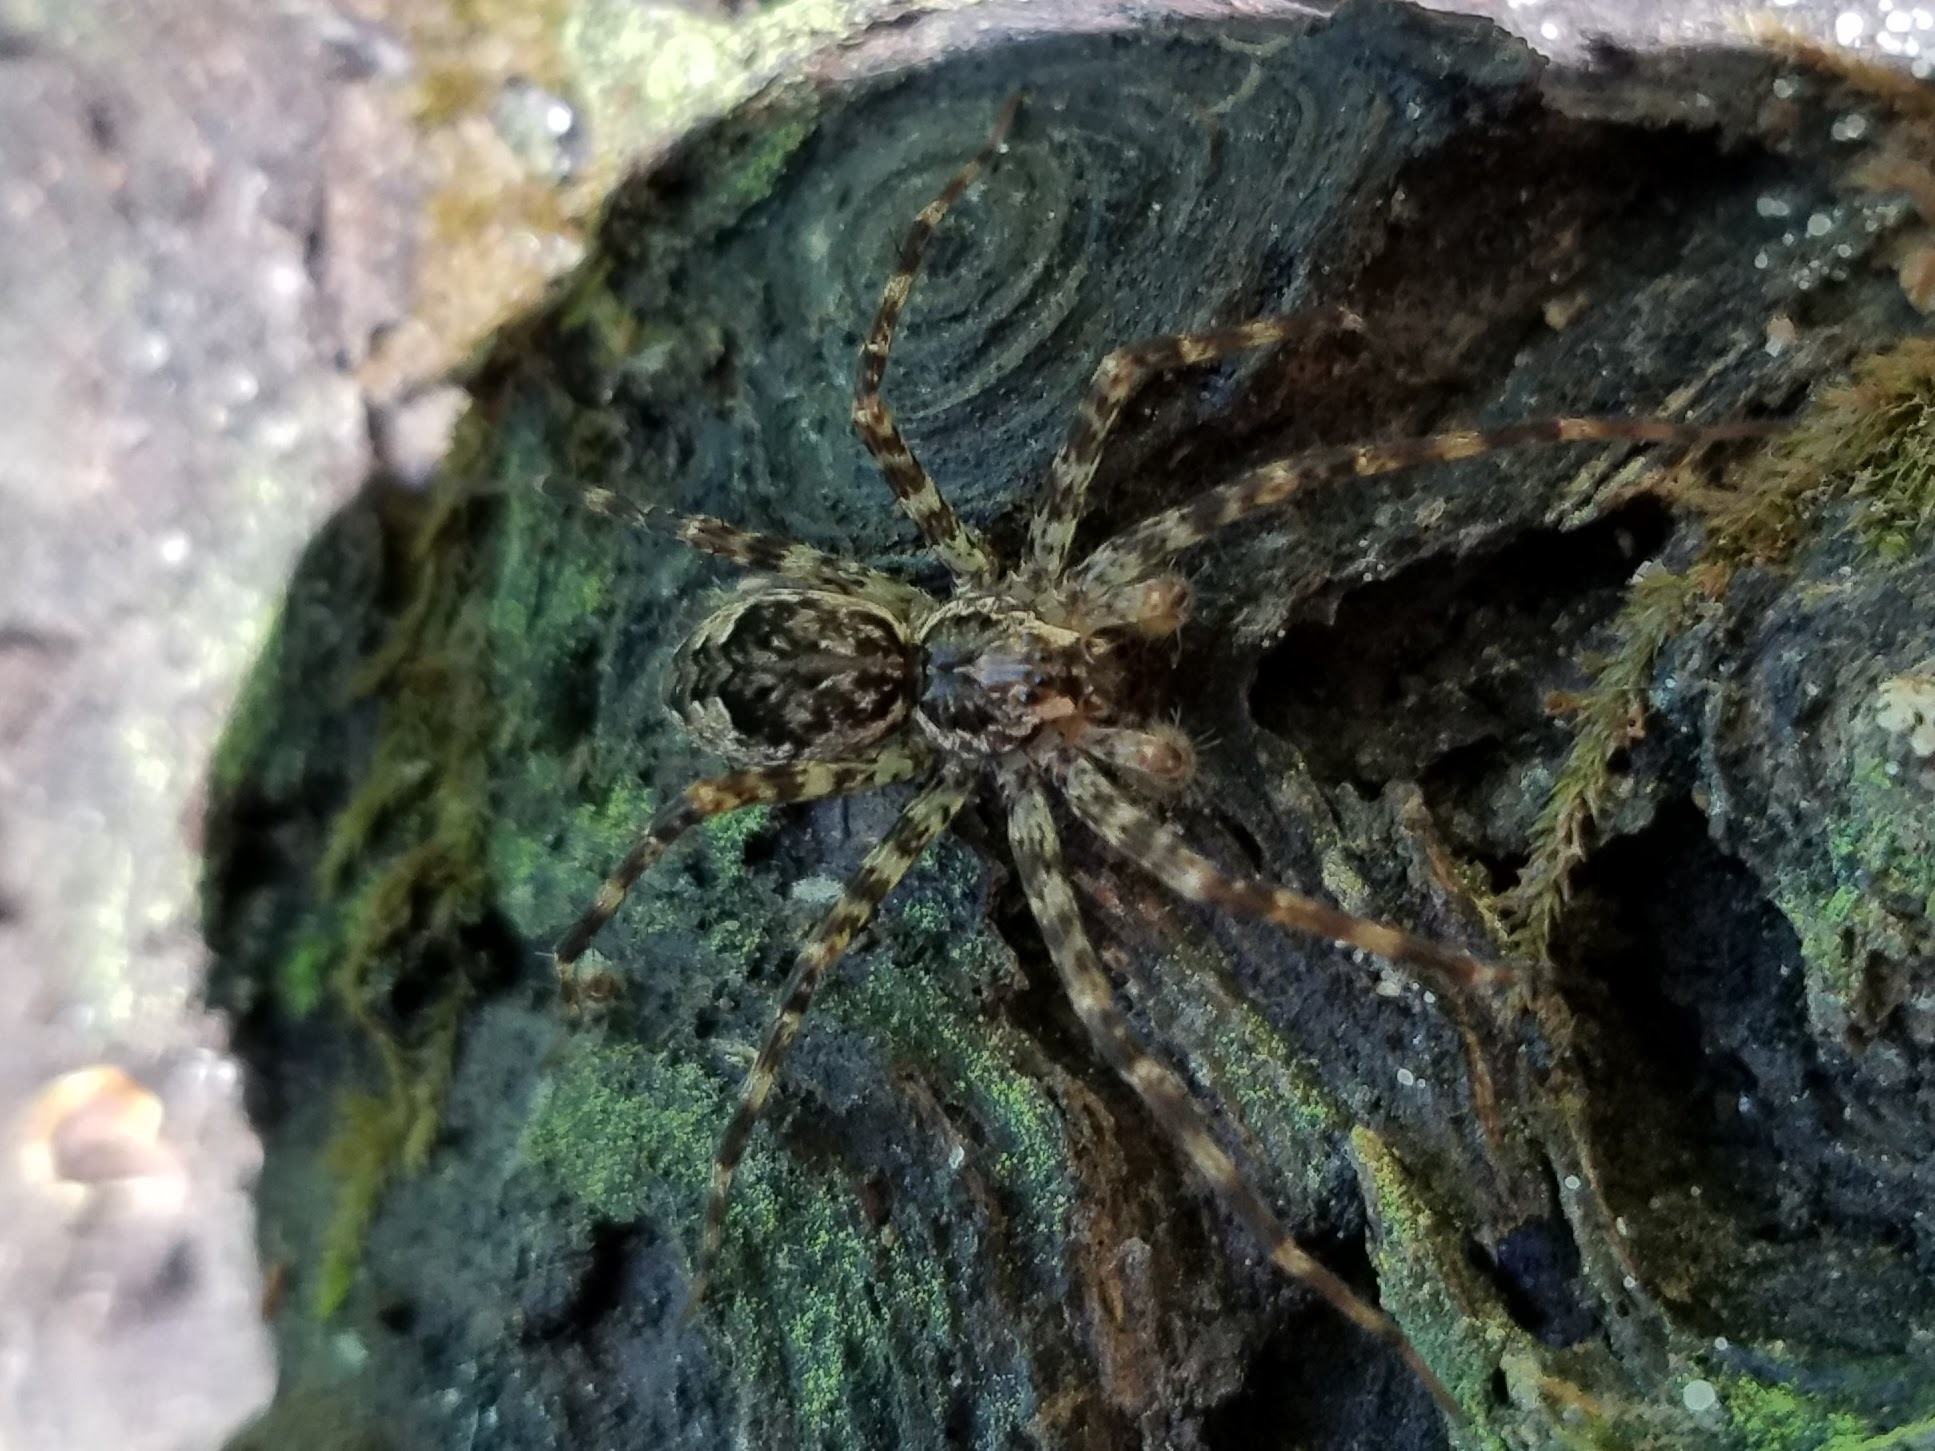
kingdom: Animalia
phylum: Arthropoda
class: Arachnida
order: Araneae
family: Pisauridae
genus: Dolomedes
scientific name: Dolomedes tenebrosus
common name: Dark fishing spider
